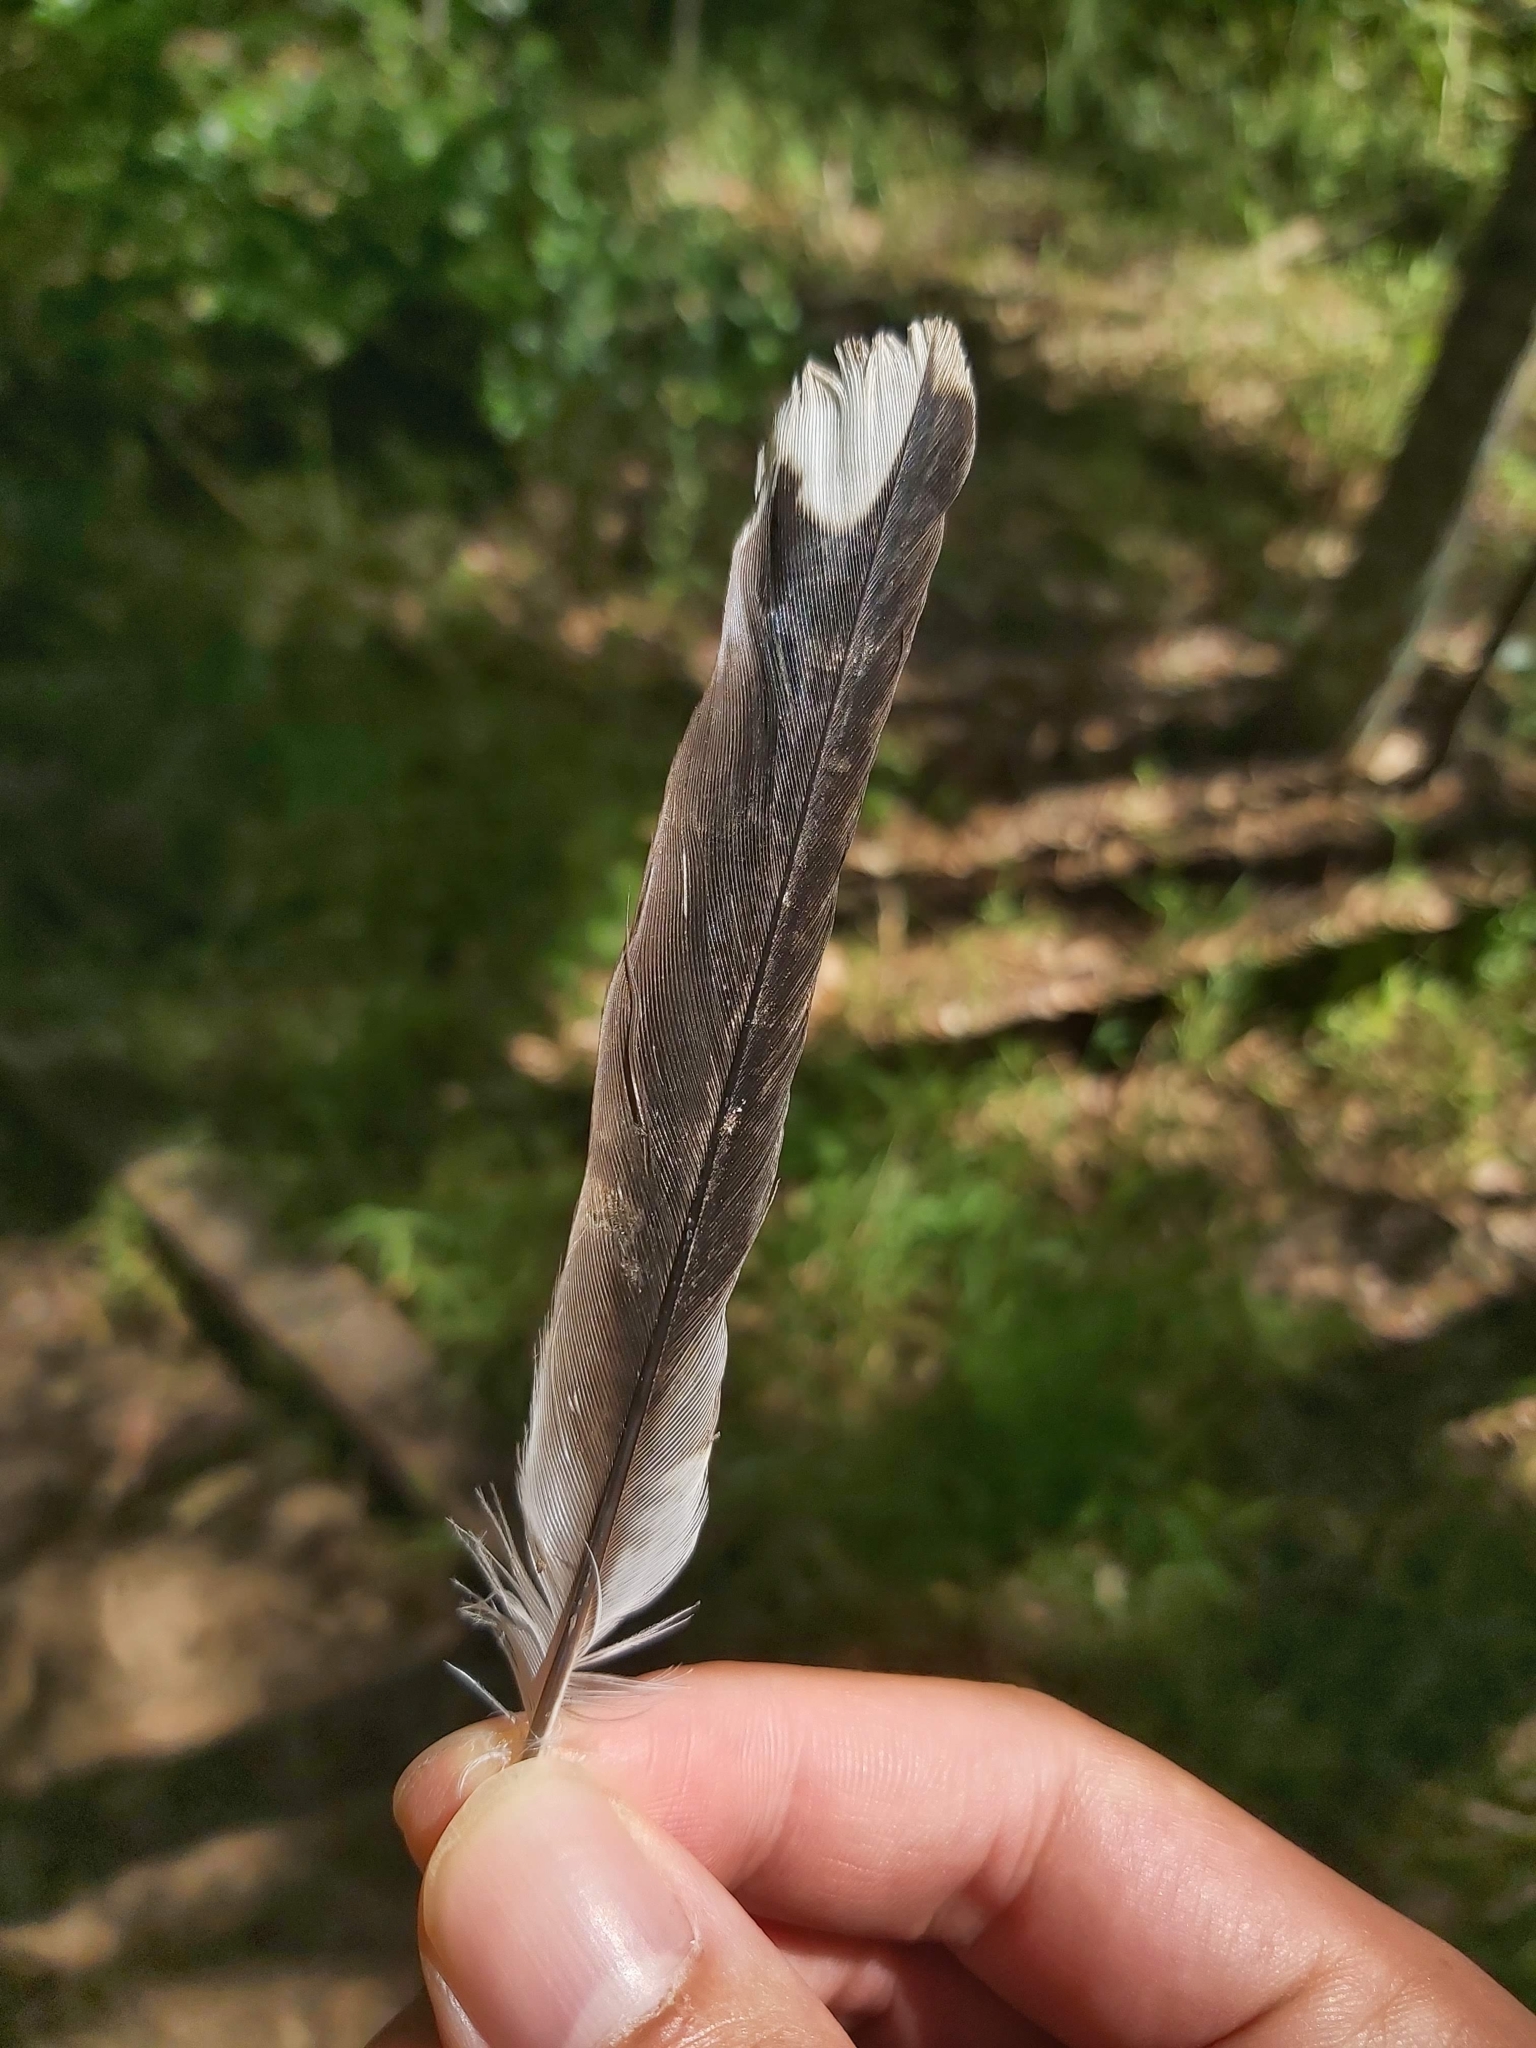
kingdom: Animalia
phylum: Chordata
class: Aves
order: Passeriformes
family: Cracticidae
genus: Cracticus
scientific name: Cracticus torquatus
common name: Grey butcherbird
